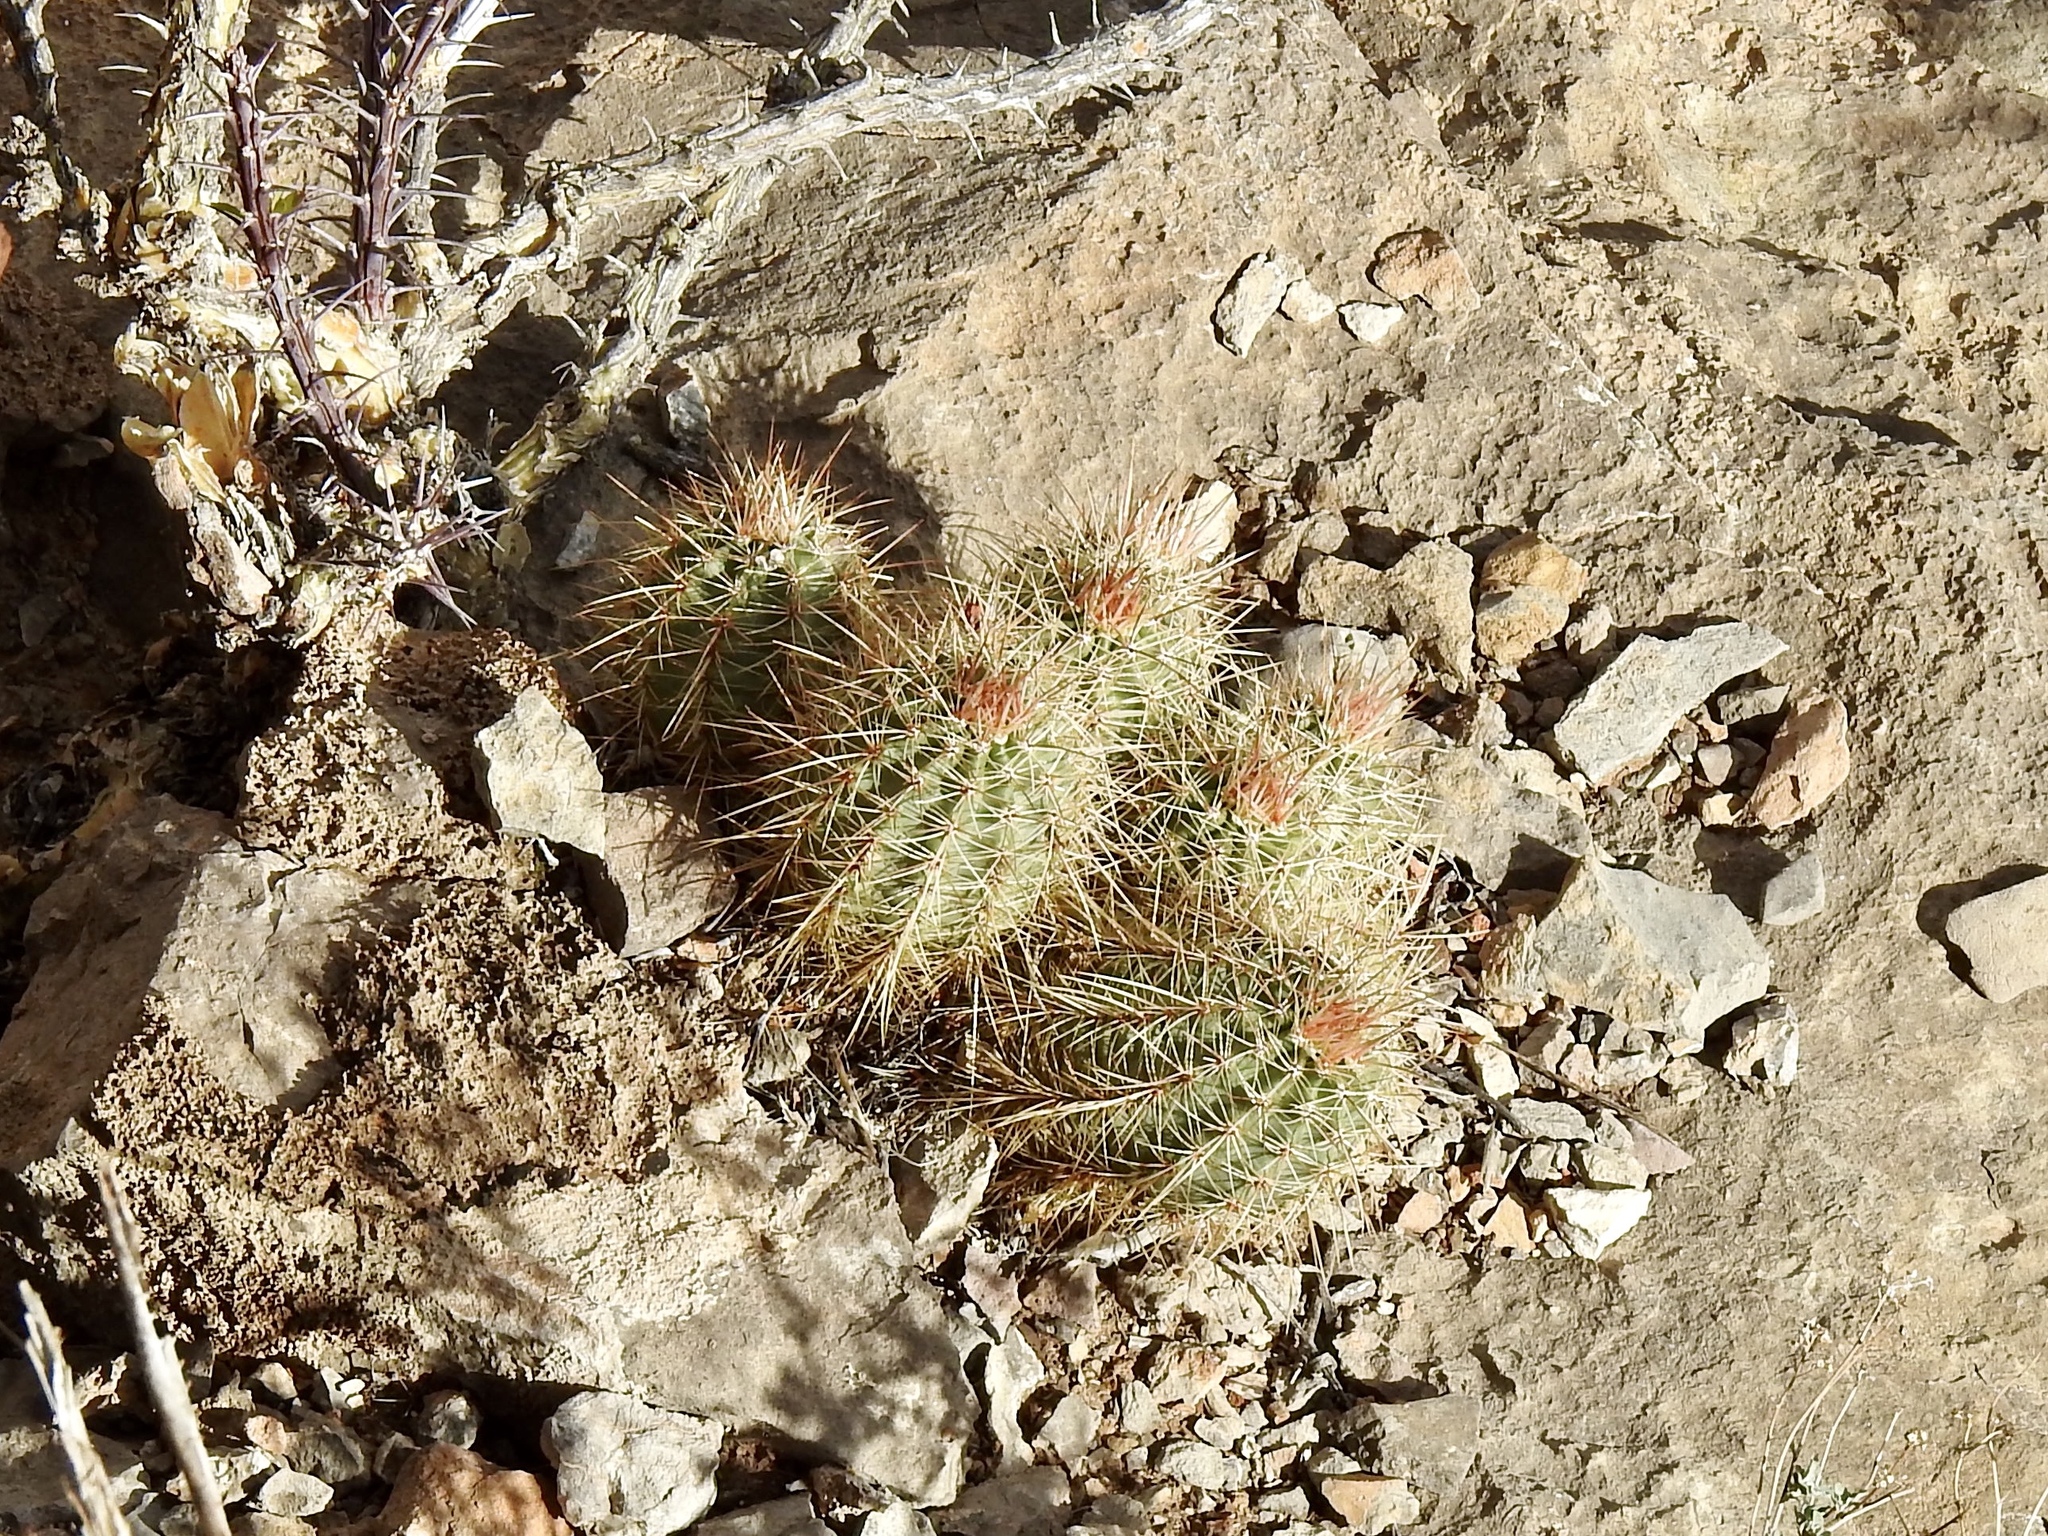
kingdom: Plantae
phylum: Tracheophyta
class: Magnoliopsida
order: Caryophyllales
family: Cactaceae
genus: Echinocereus
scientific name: Echinocereus coccineus
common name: Scarlet hedgehog cactus
